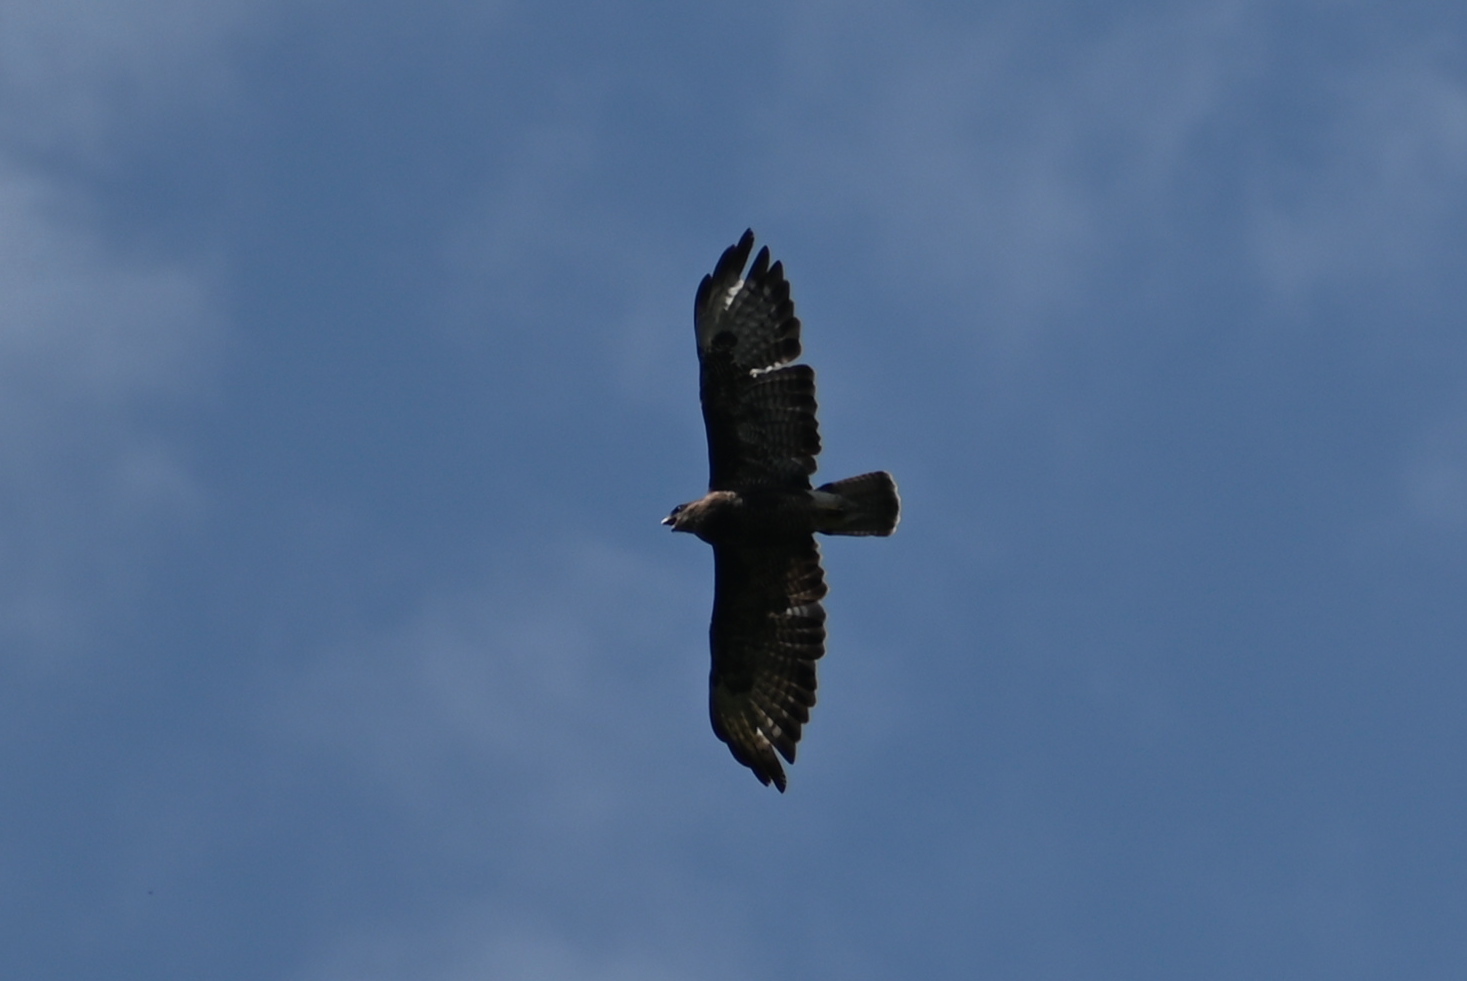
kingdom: Animalia
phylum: Chordata
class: Aves
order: Accipitriformes
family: Accipitridae
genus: Buteo
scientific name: Buteo buteo
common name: Common buzzard
